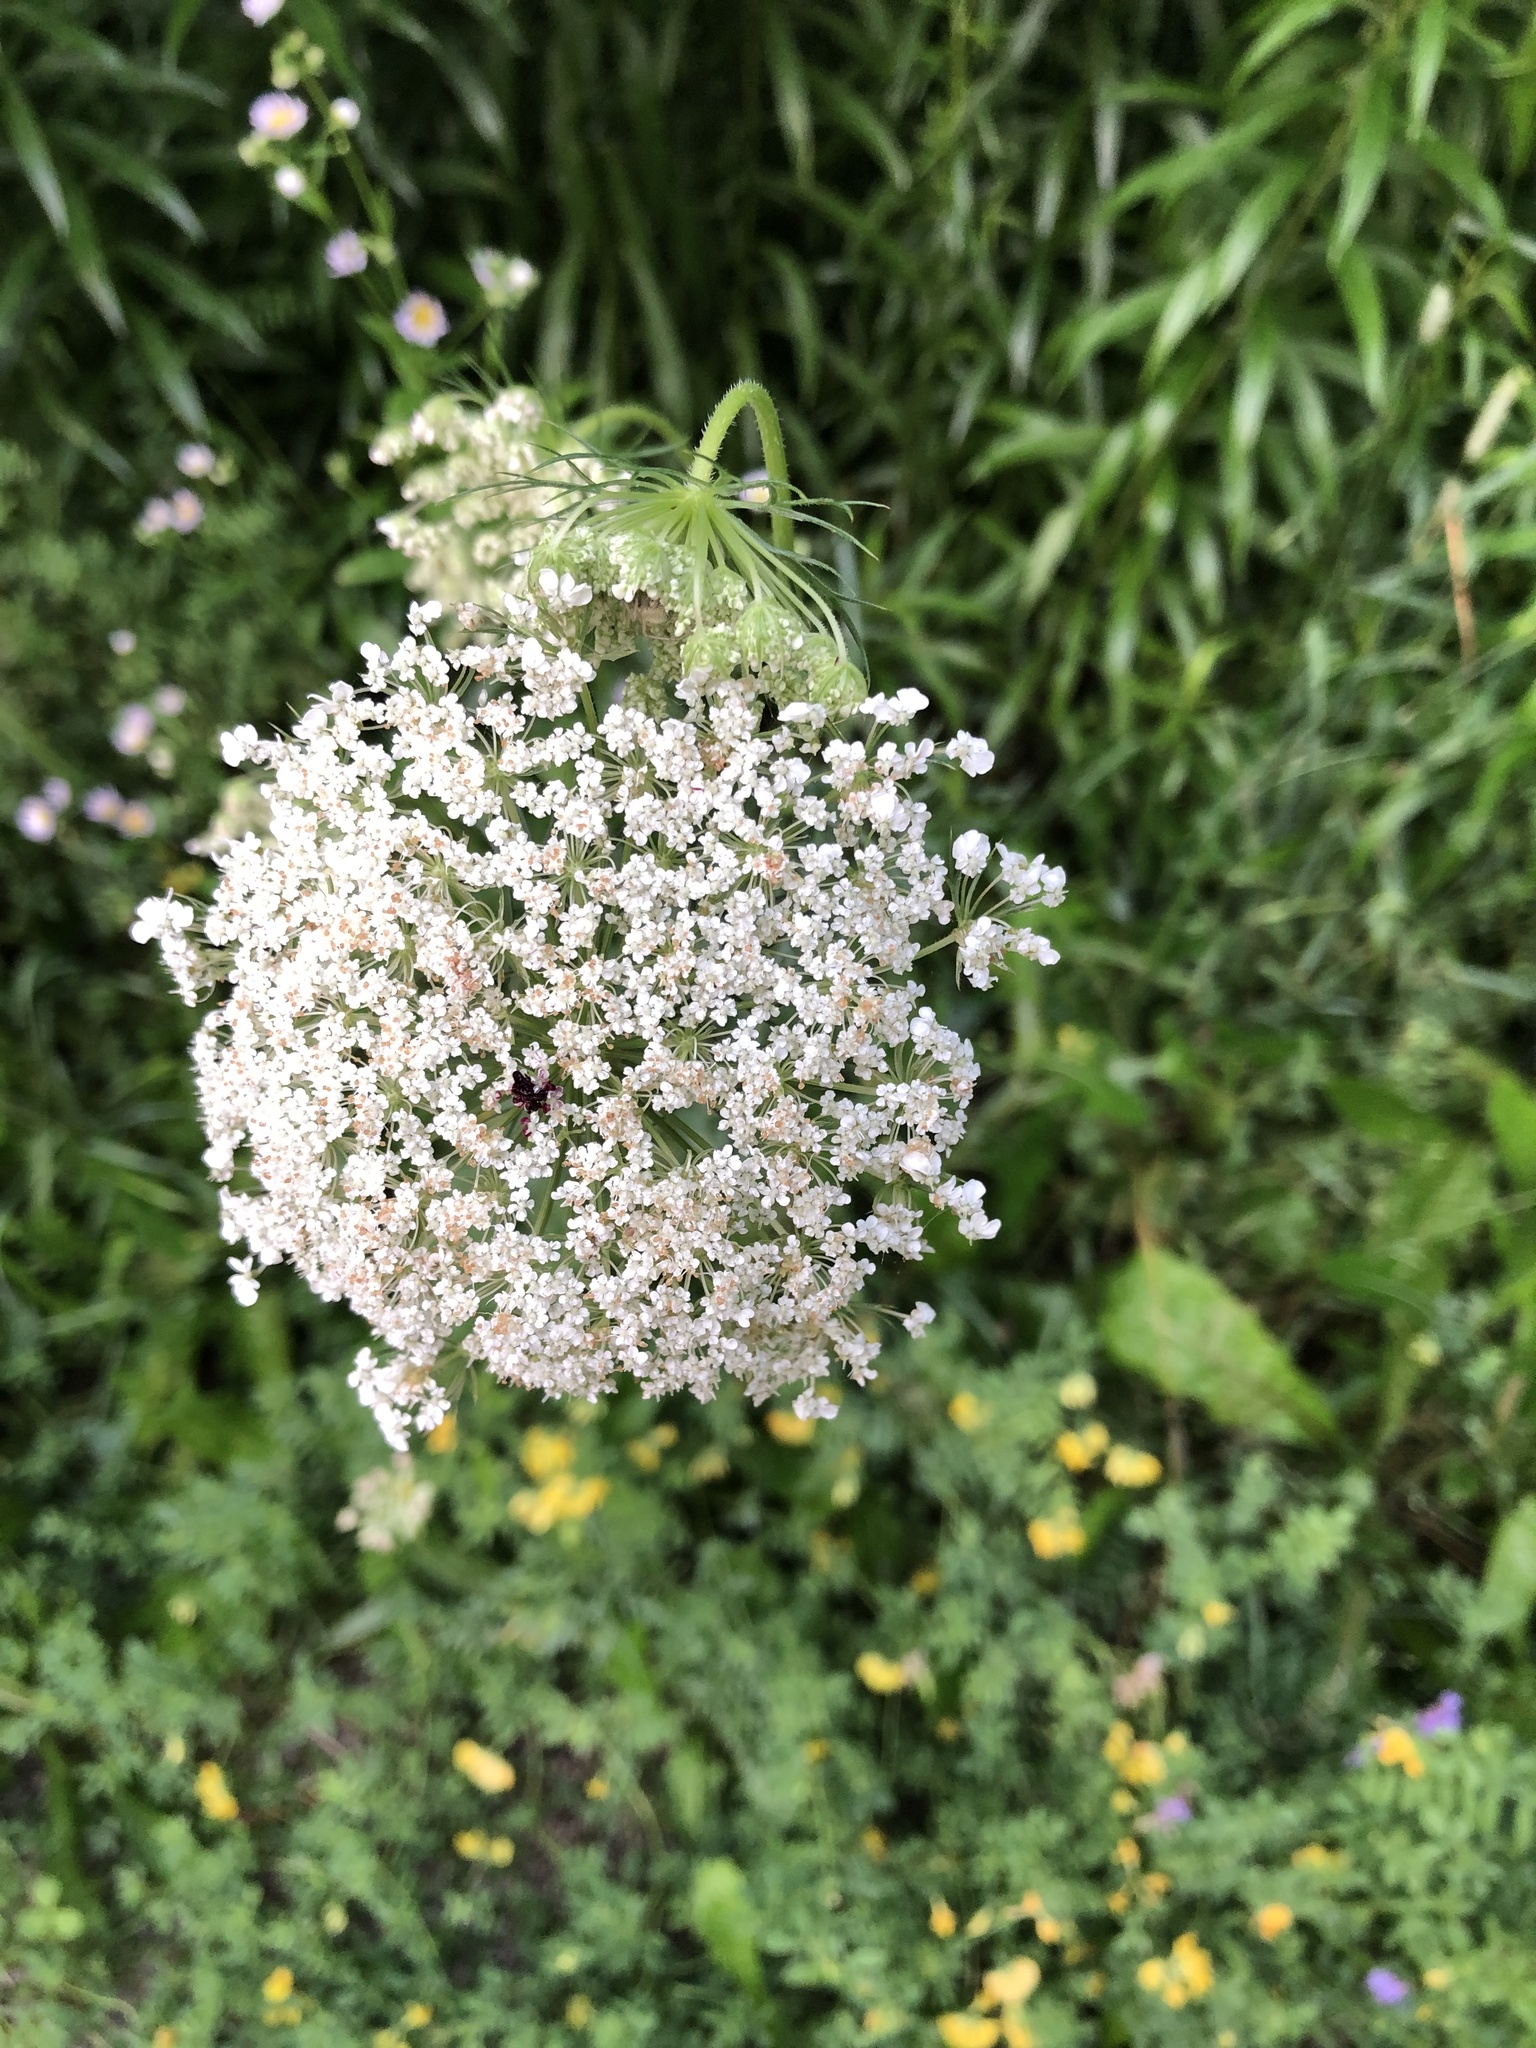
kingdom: Plantae
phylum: Tracheophyta
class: Magnoliopsida
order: Apiales
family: Apiaceae
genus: Daucus
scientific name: Daucus carota
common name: Wild carrot
